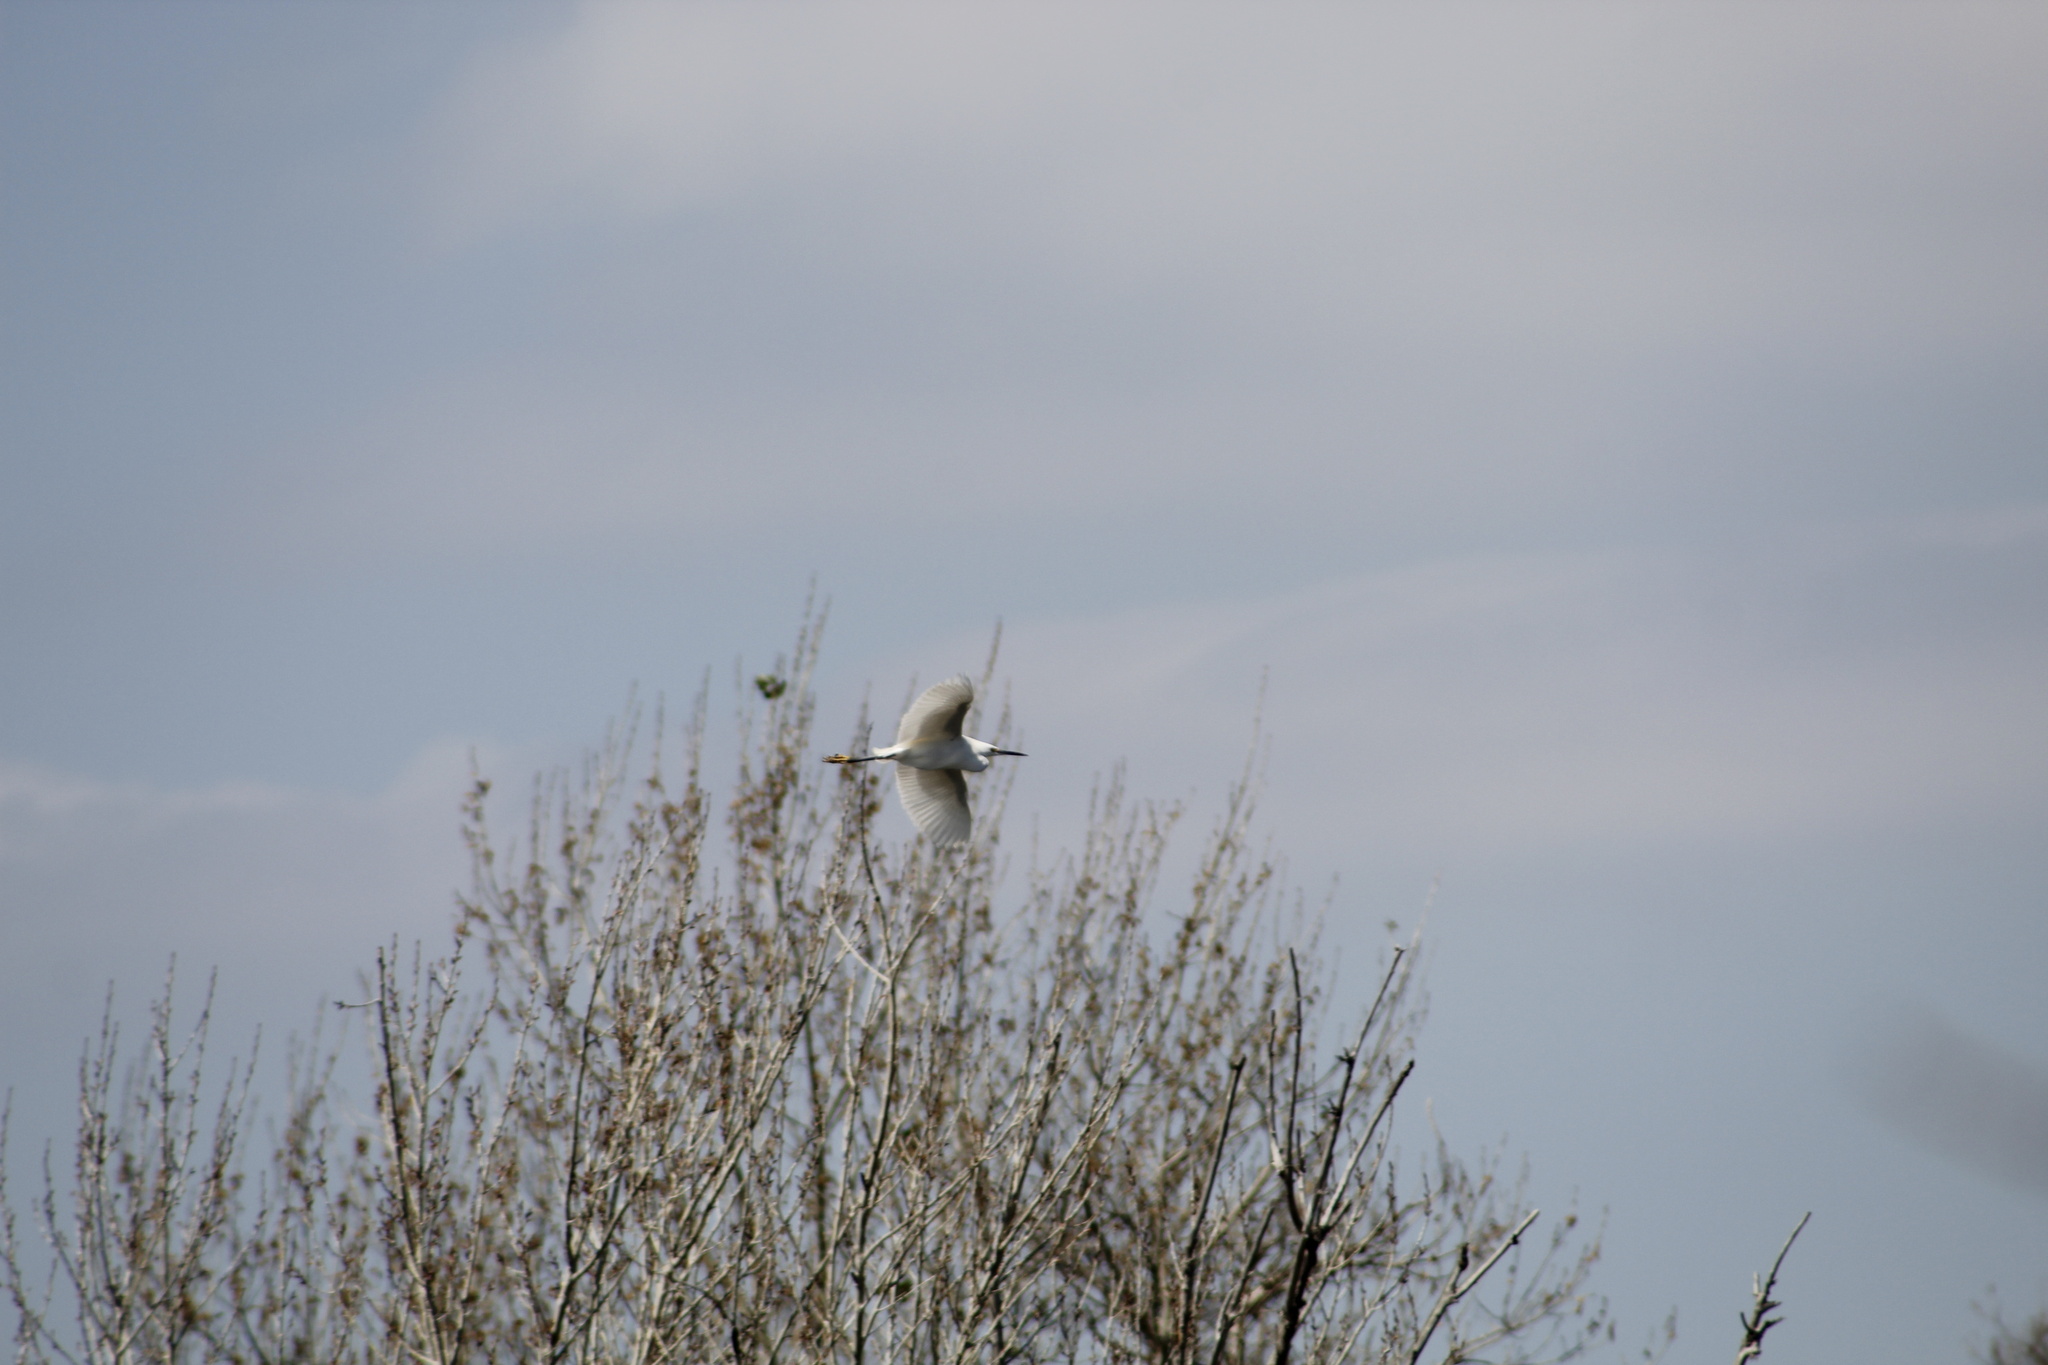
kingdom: Animalia
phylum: Chordata
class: Aves
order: Pelecaniformes
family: Ardeidae
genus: Egretta
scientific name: Egretta thula
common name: Snowy egret
